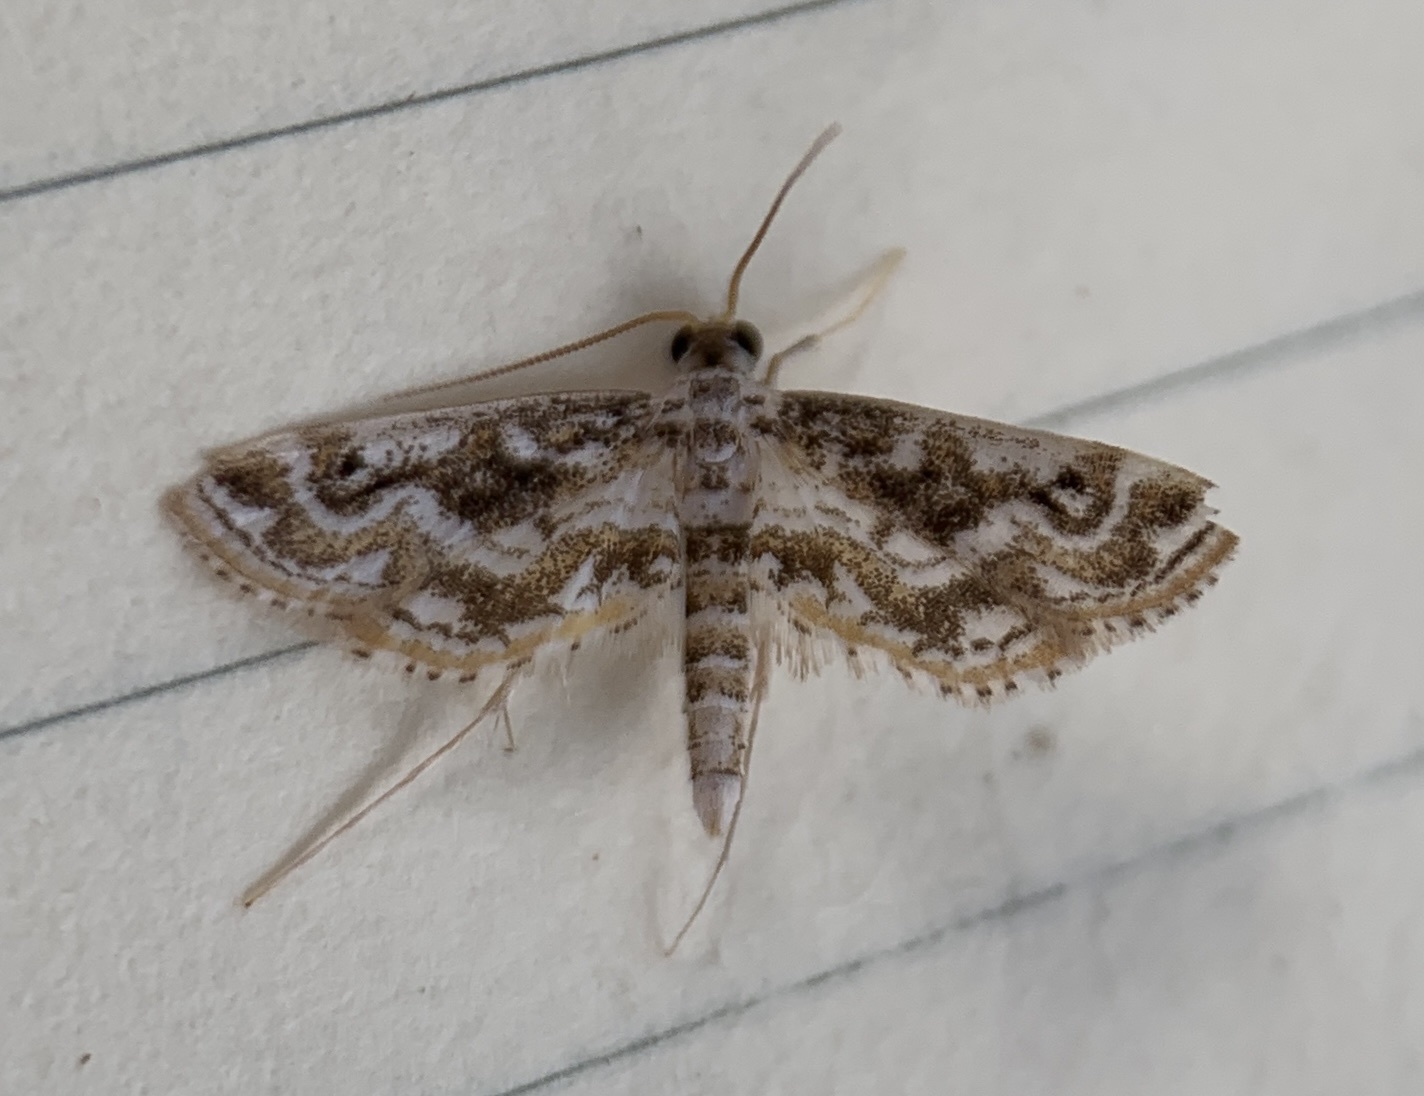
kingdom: Animalia
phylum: Arthropoda
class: Insecta
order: Lepidoptera
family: Crambidae
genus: Parapoynx
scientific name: Parapoynx diminutalis
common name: Hydrilla leafcutter
